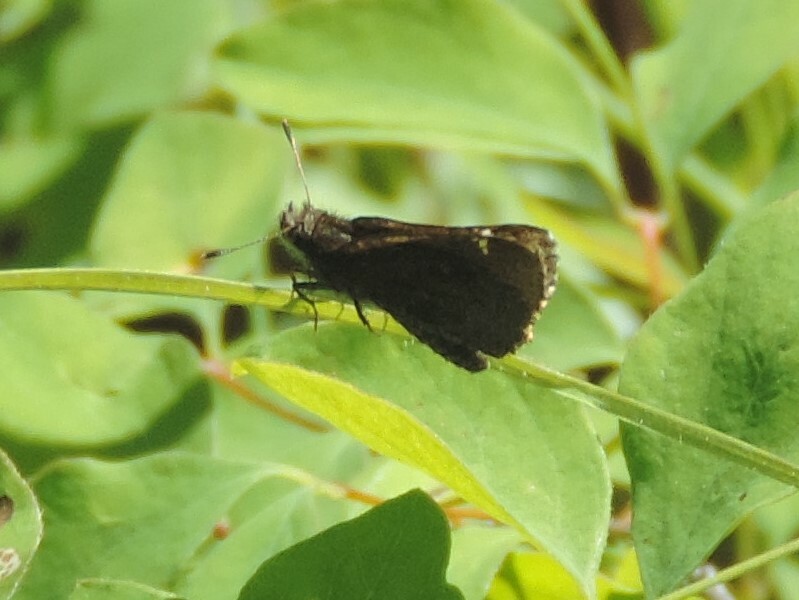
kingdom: Animalia
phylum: Arthropoda
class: Insecta
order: Lepidoptera
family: Hesperiidae
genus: Mastor
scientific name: Mastor vialis
